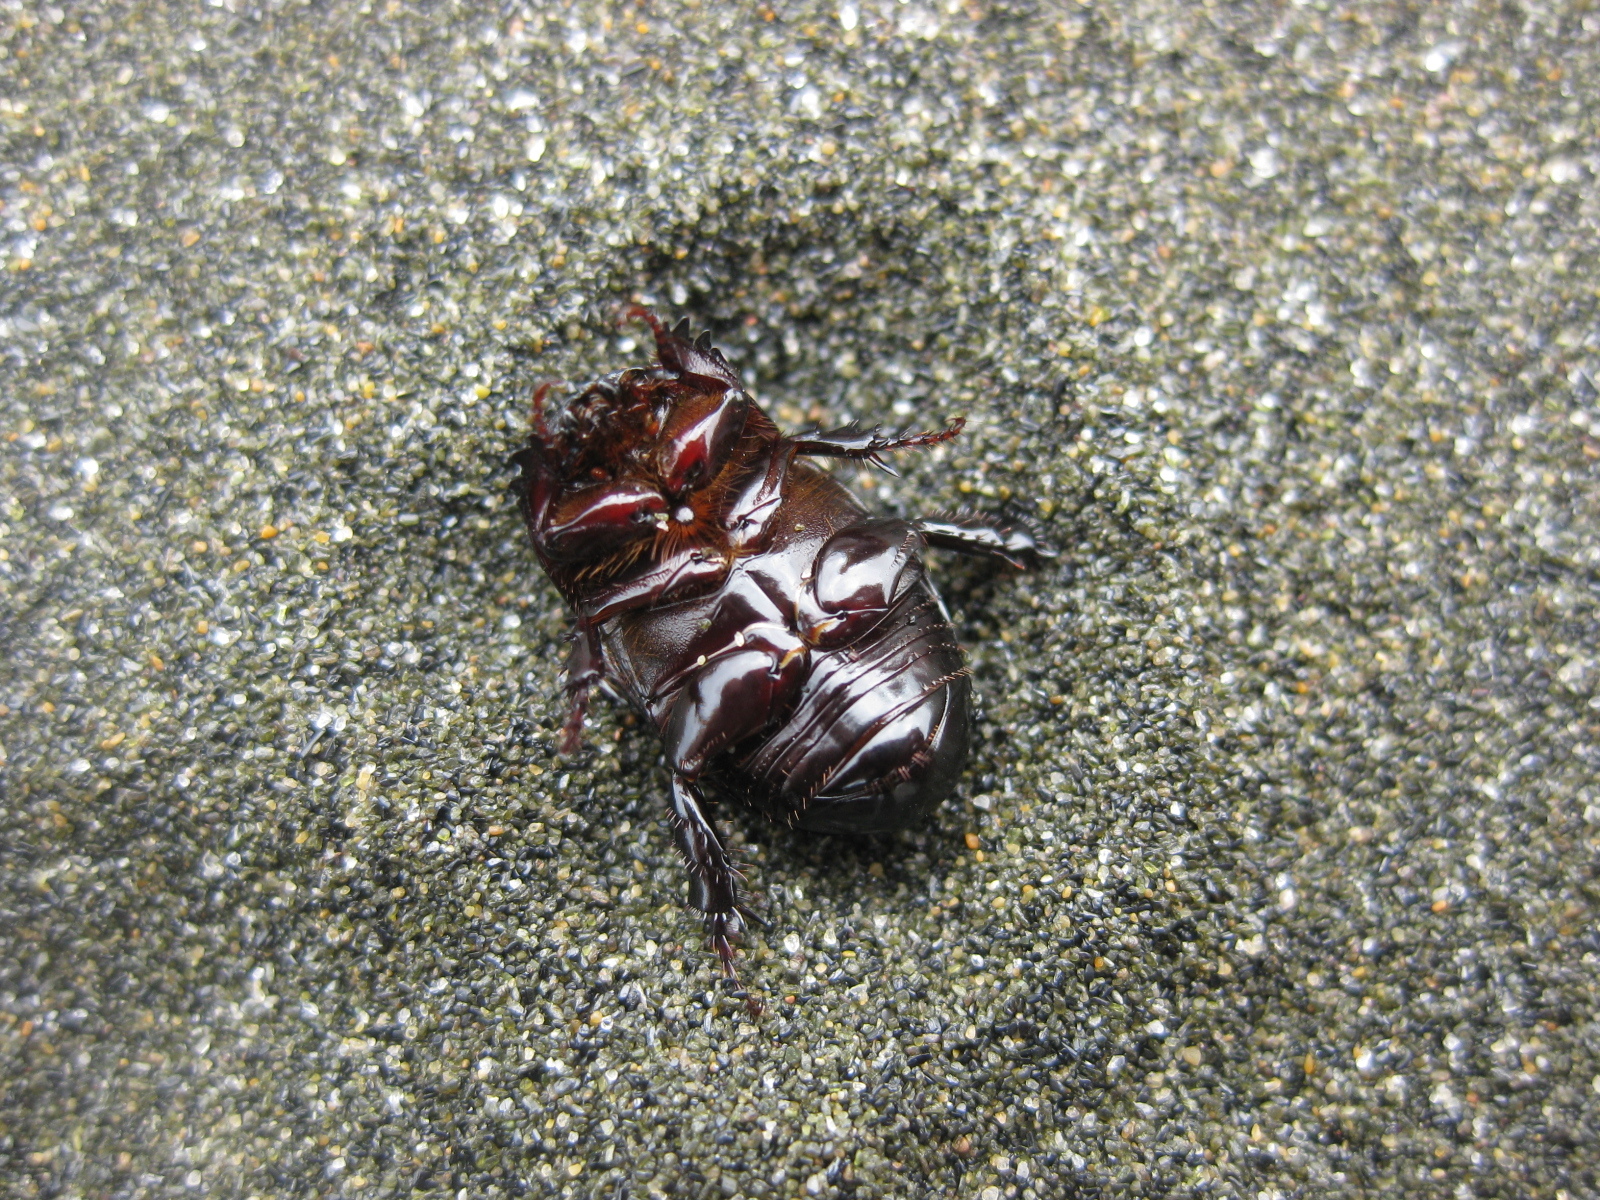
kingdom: Animalia
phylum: Arthropoda
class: Insecta
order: Coleoptera
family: Scarabaeidae
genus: Heteronychus
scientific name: Heteronychus arator
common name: African black beetle
